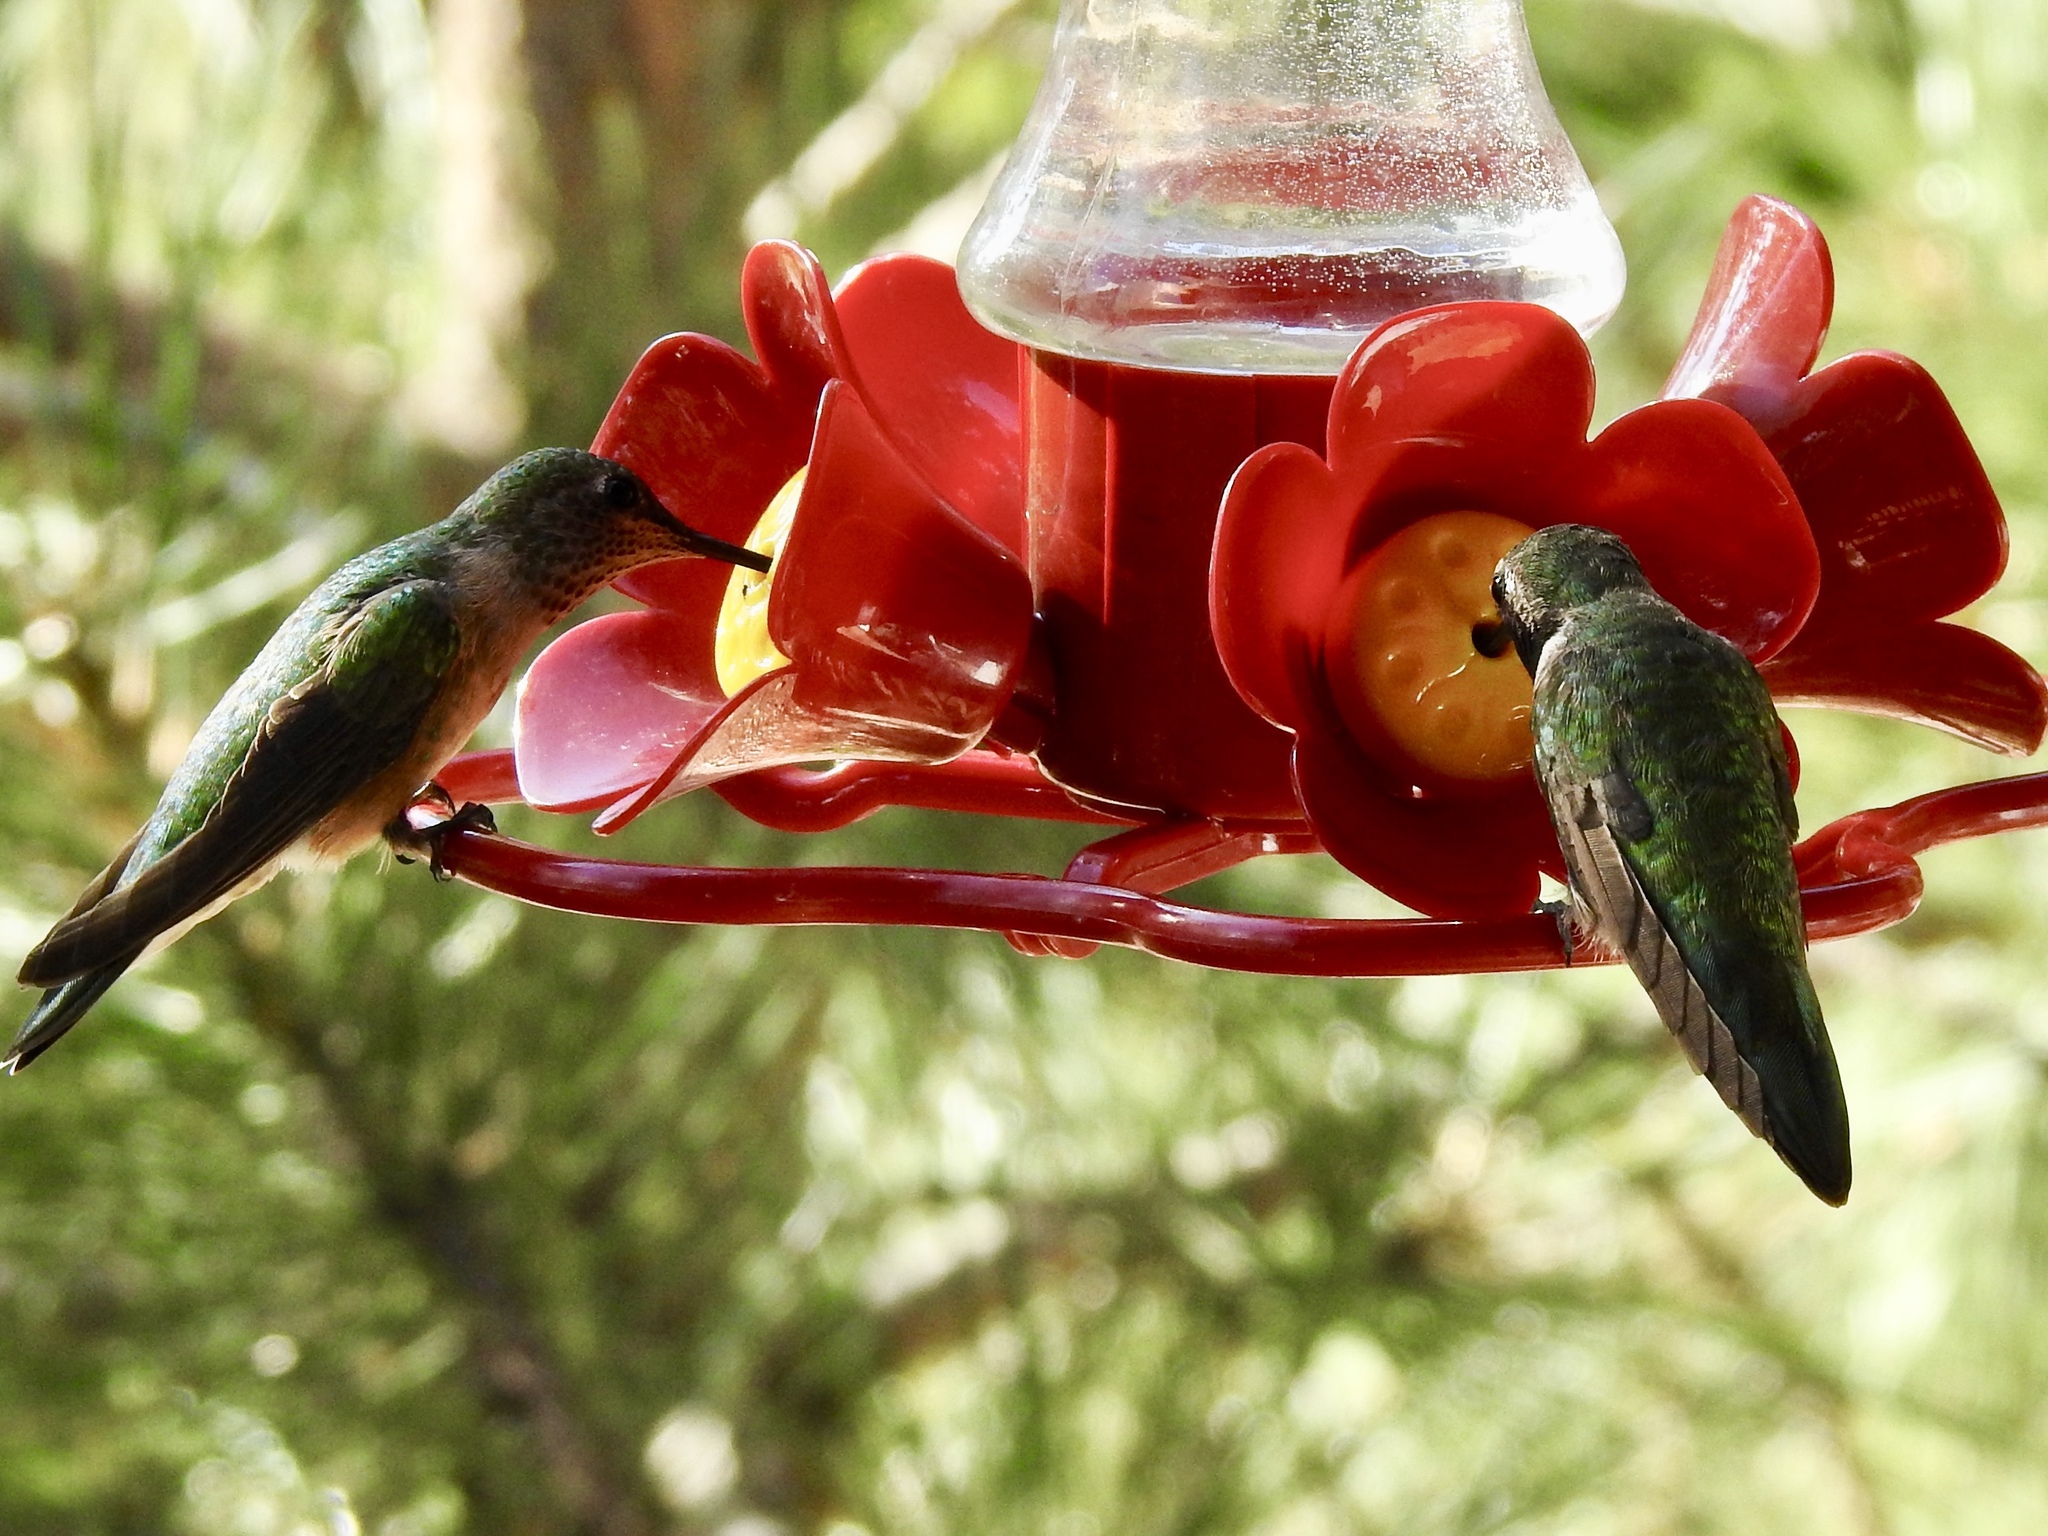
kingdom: Animalia
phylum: Chordata
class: Aves
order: Apodiformes
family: Trochilidae
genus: Selasphorus
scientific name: Selasphorus platycercus
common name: Broad-tailed hummingbird
